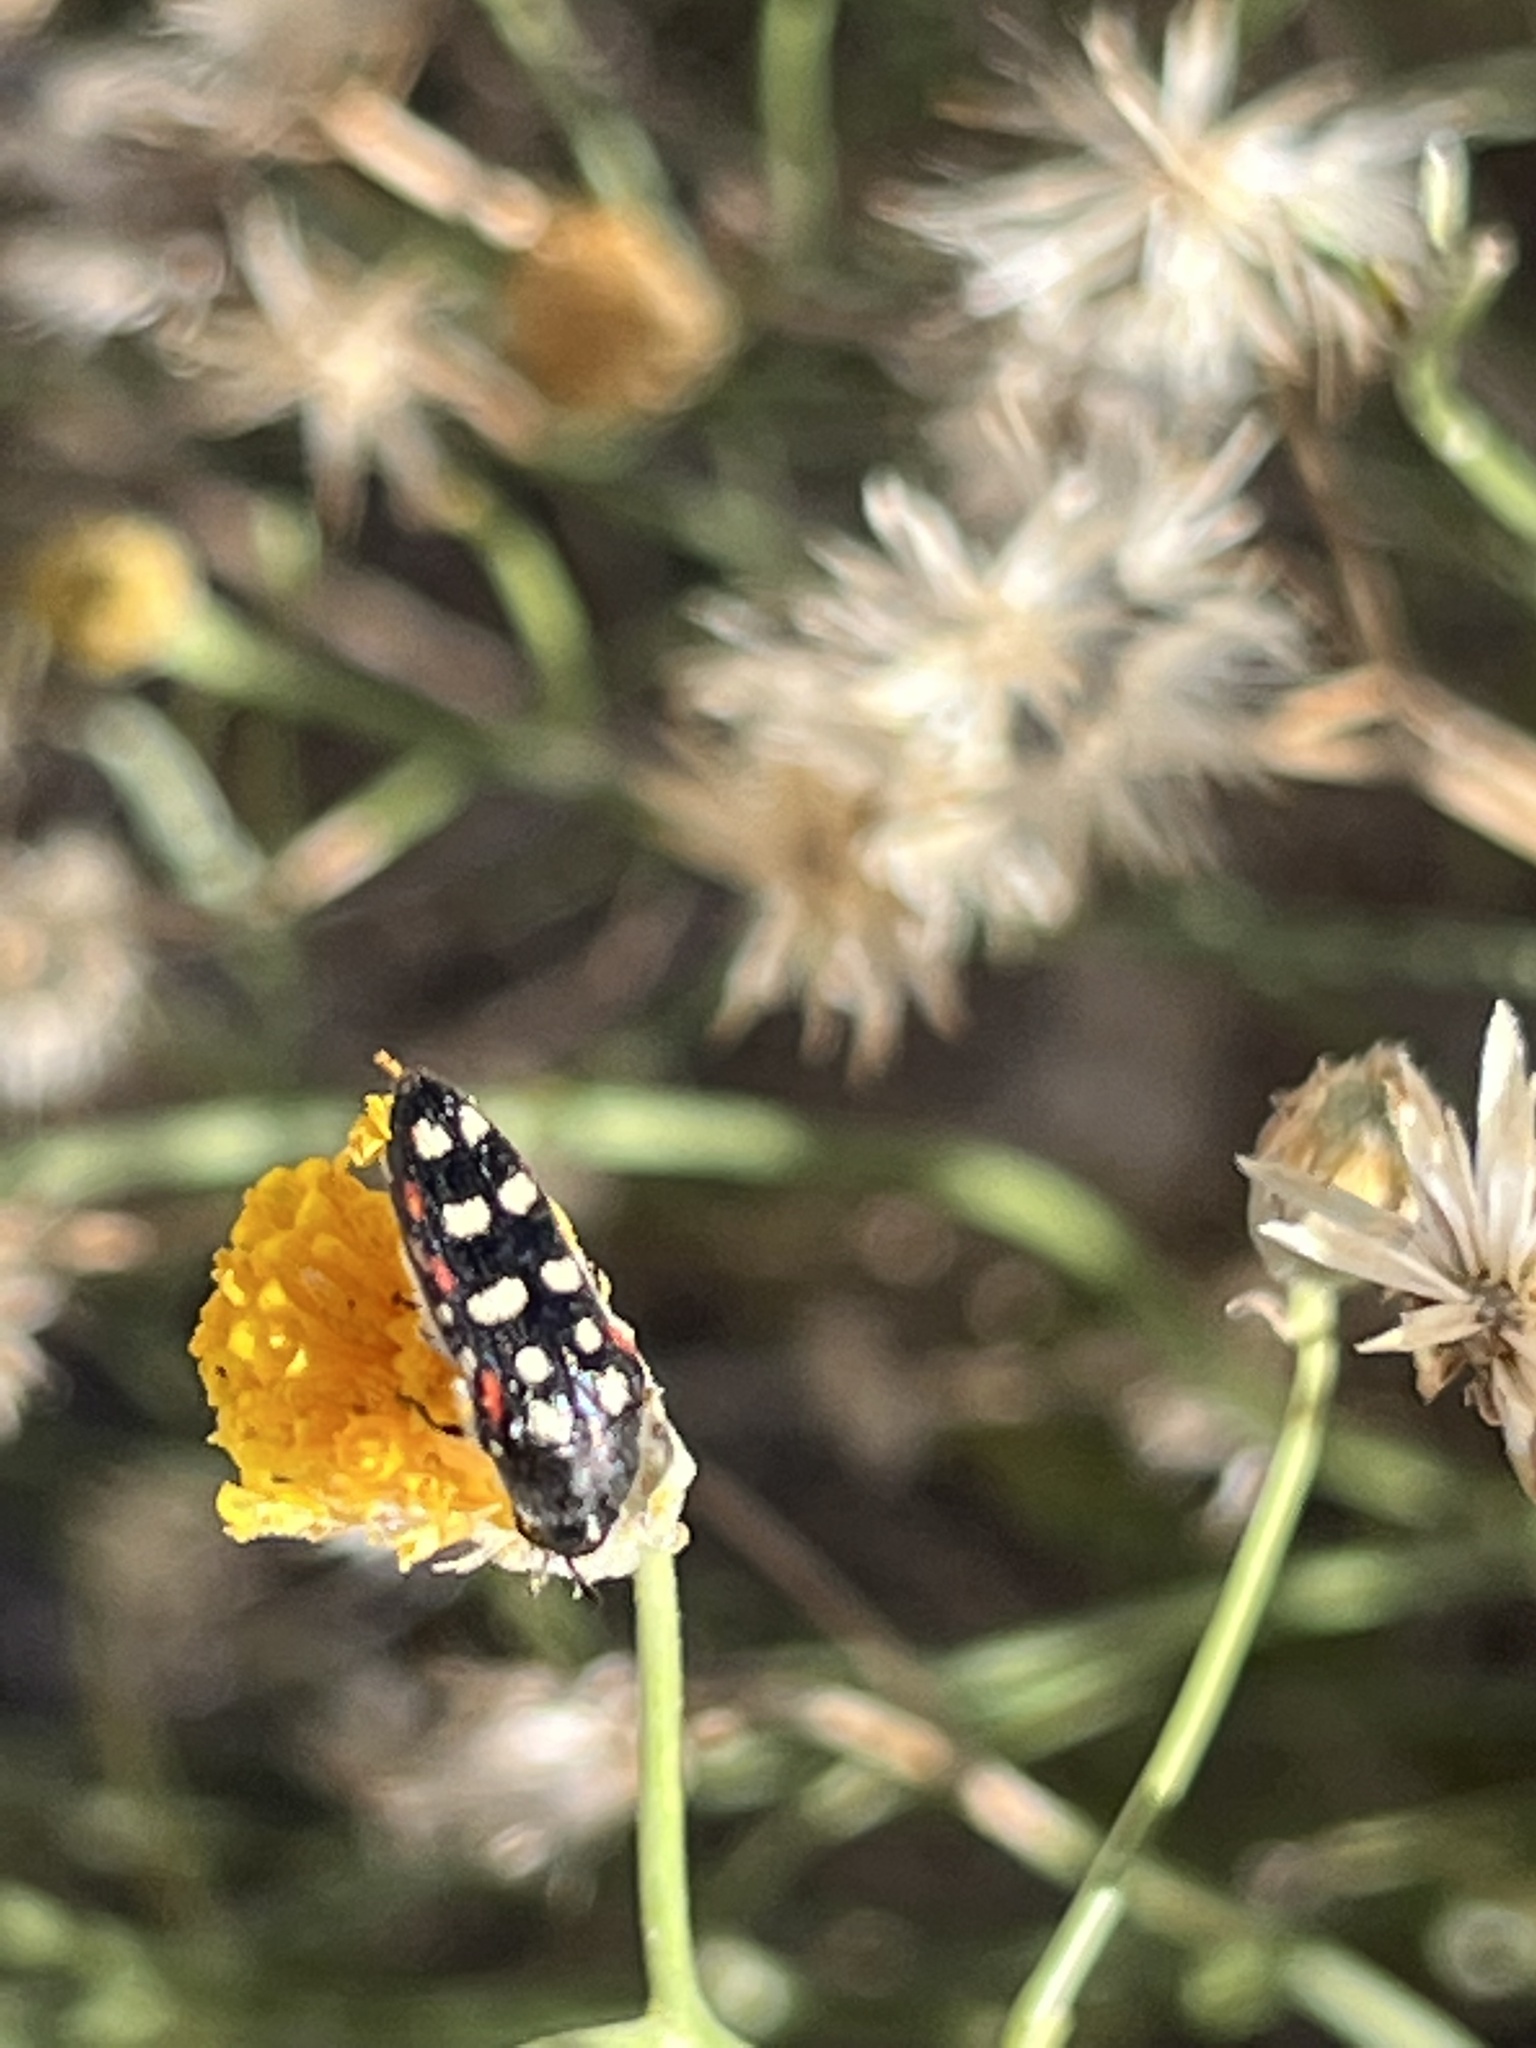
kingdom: Animalia
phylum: Arthropoda
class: Insecta
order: Coleoptera
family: Buprestidae
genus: Acmaeodera
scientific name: Acmaeodera gibbula
